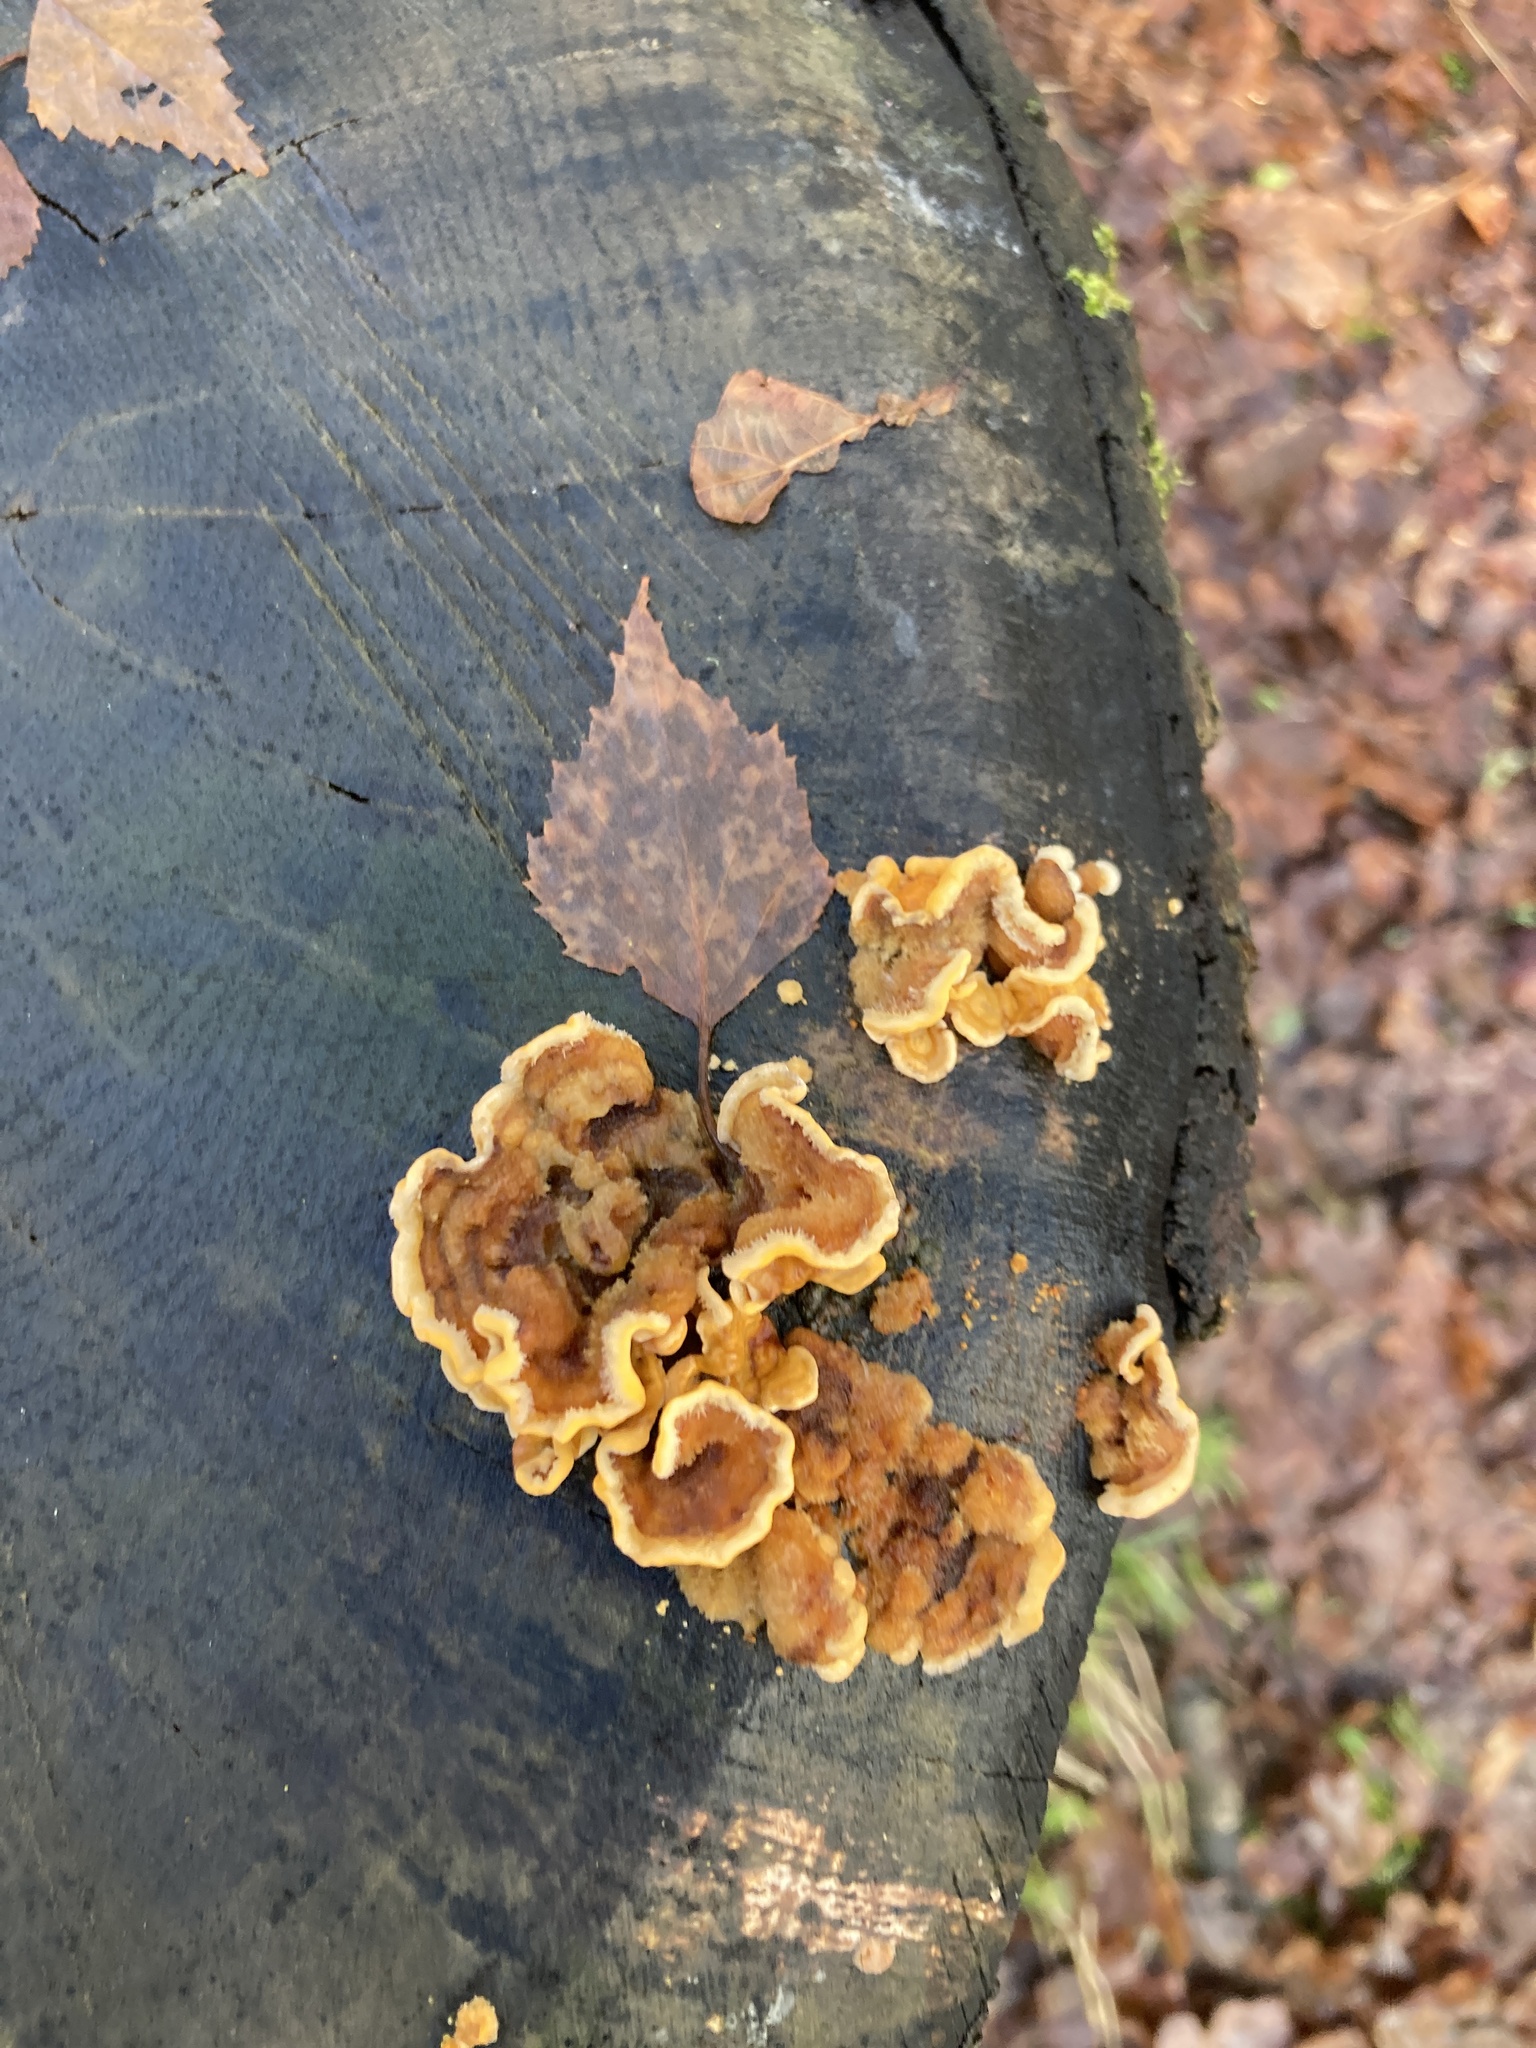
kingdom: Fungi
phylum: Basidiomycota
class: Agaricomycetes
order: Russulales
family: Stereaceae
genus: Stereum
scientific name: Stereum hirsutum
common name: Hairy curtain crust
